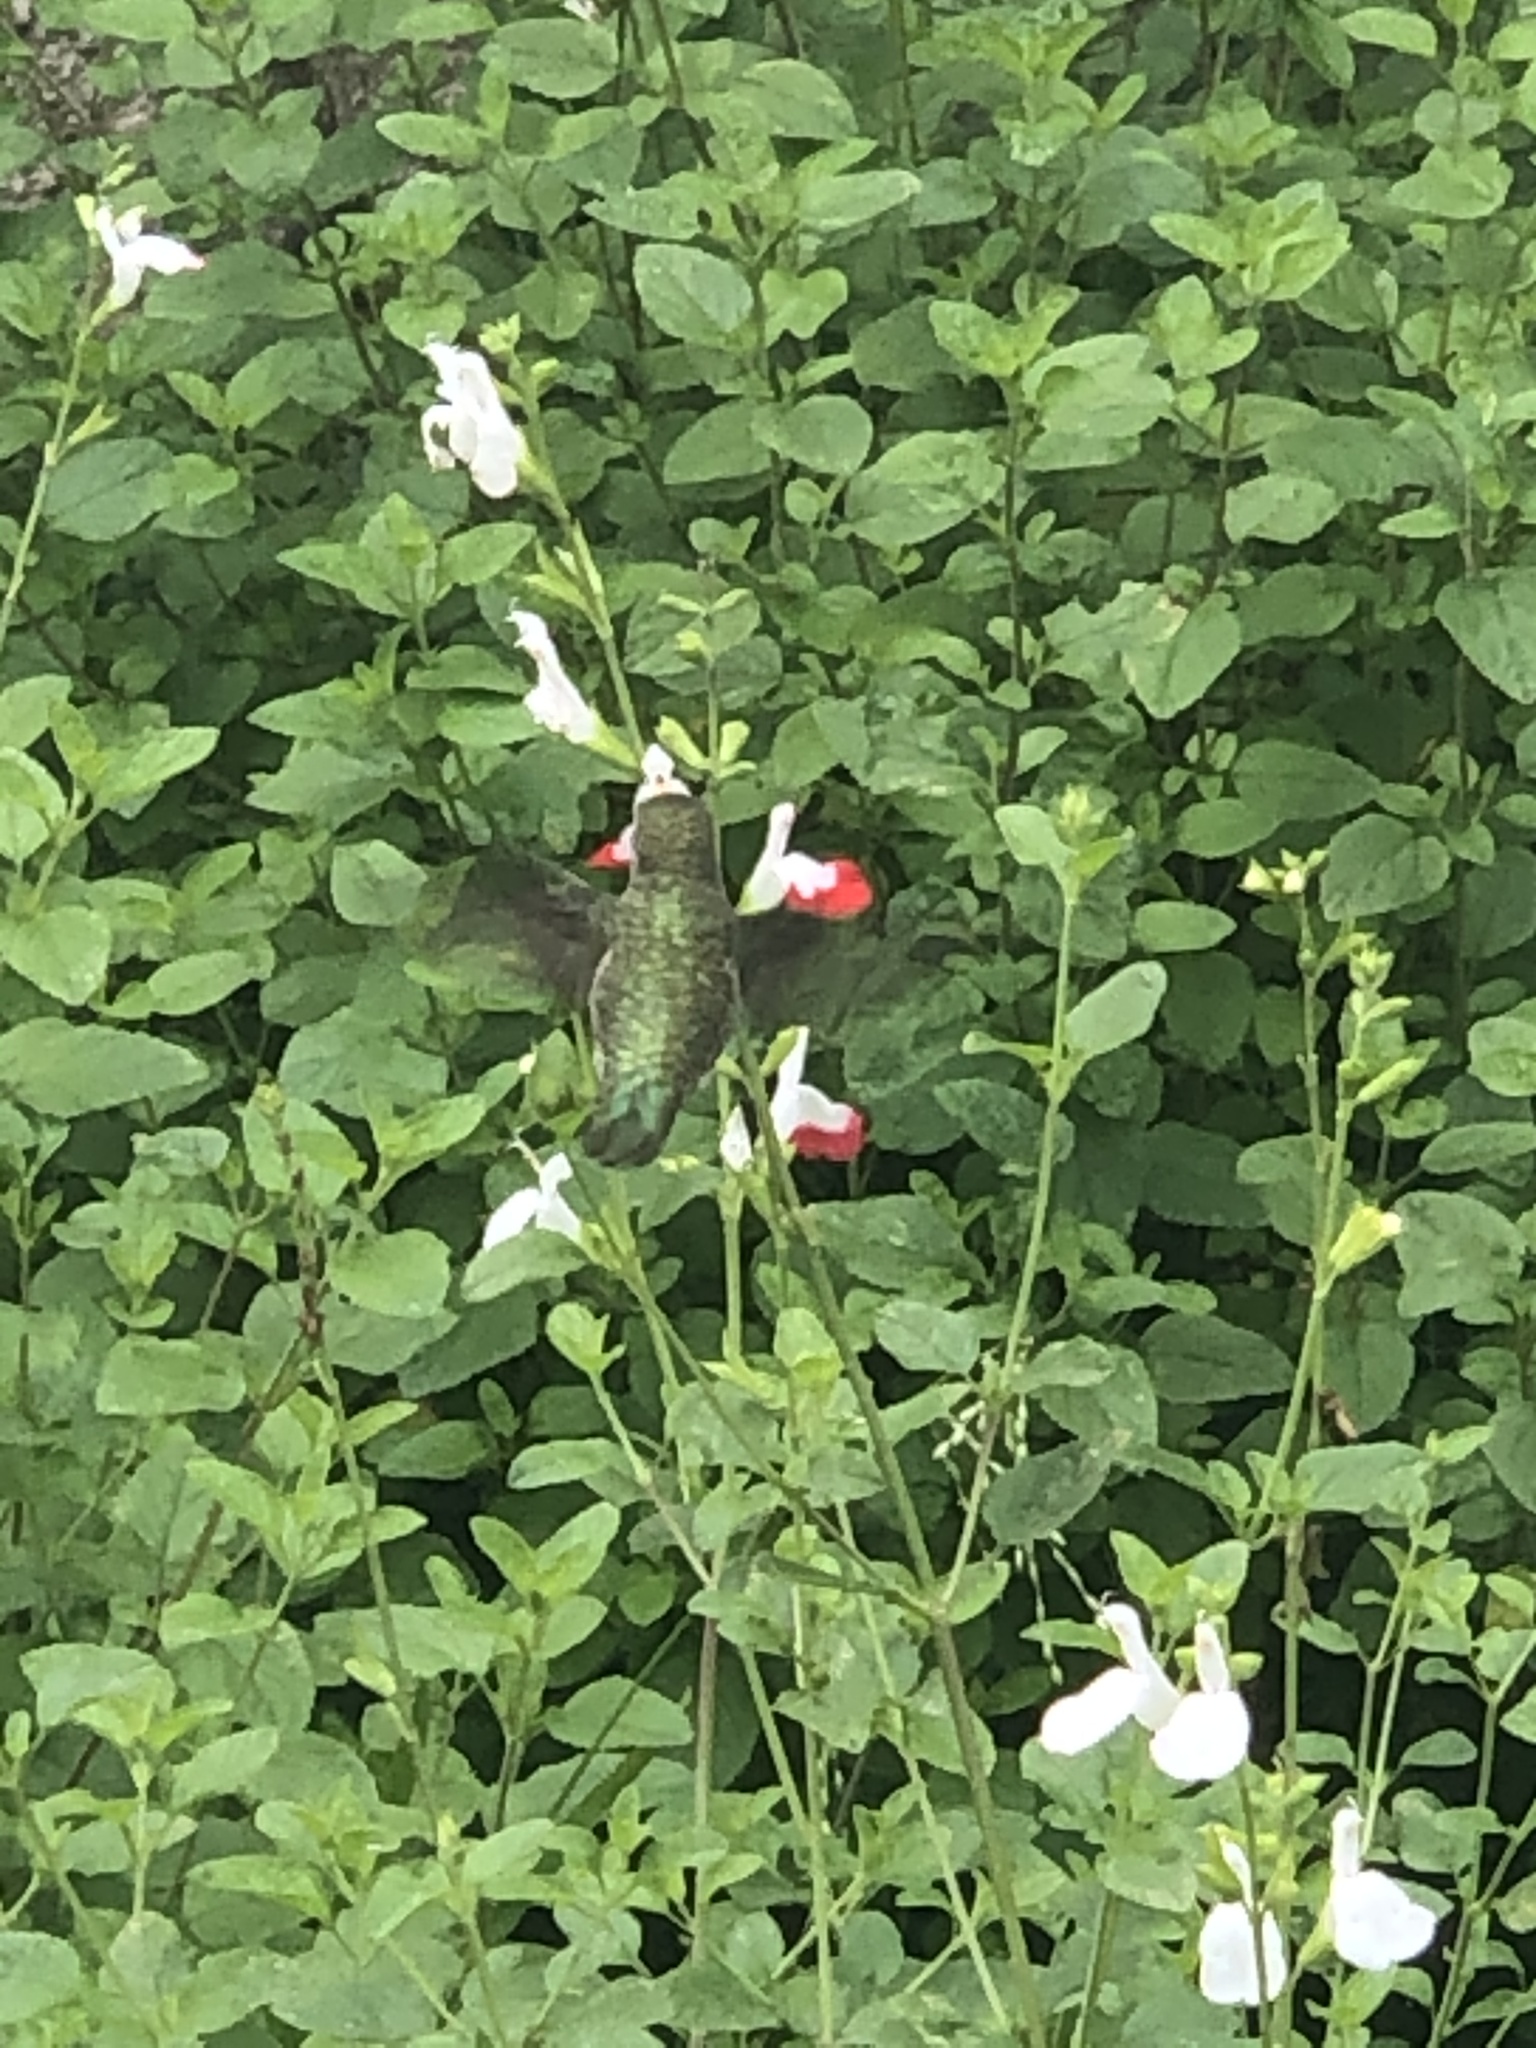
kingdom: Animalia
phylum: Chordata
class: Aves
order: Apodiformes
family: Trochilidae
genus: Calypte
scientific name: Calypte anna
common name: Anna's hummingbird
